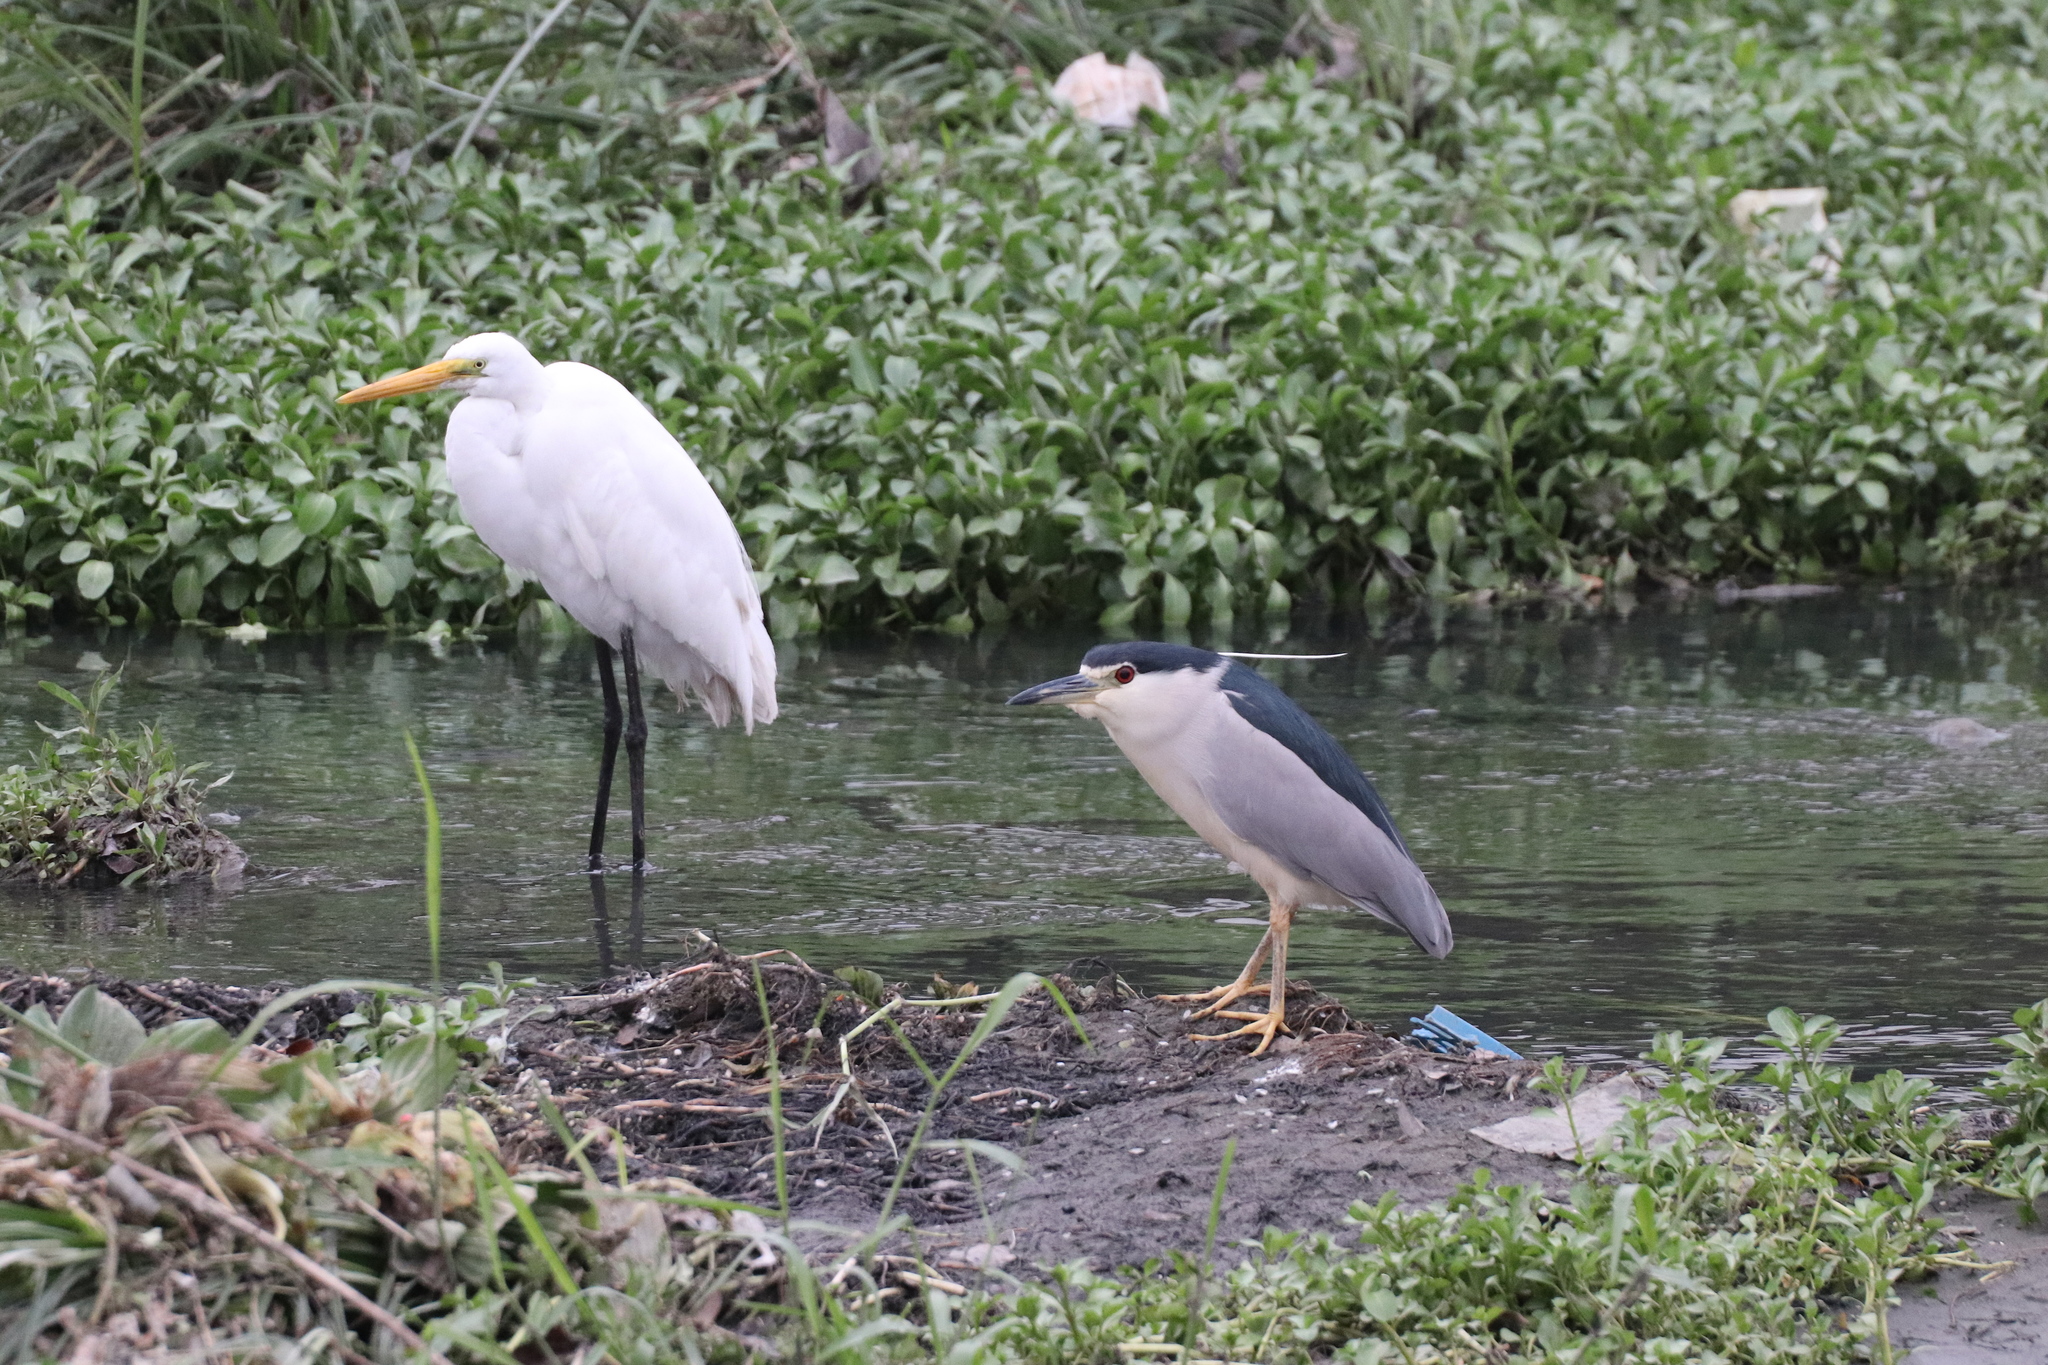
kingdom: Animalia
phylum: Chordata
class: Aves
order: Pelecaniformes
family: Ardeidae
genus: Nycticorax
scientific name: Nycticorax nycticorax
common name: Black-crowned night heron
